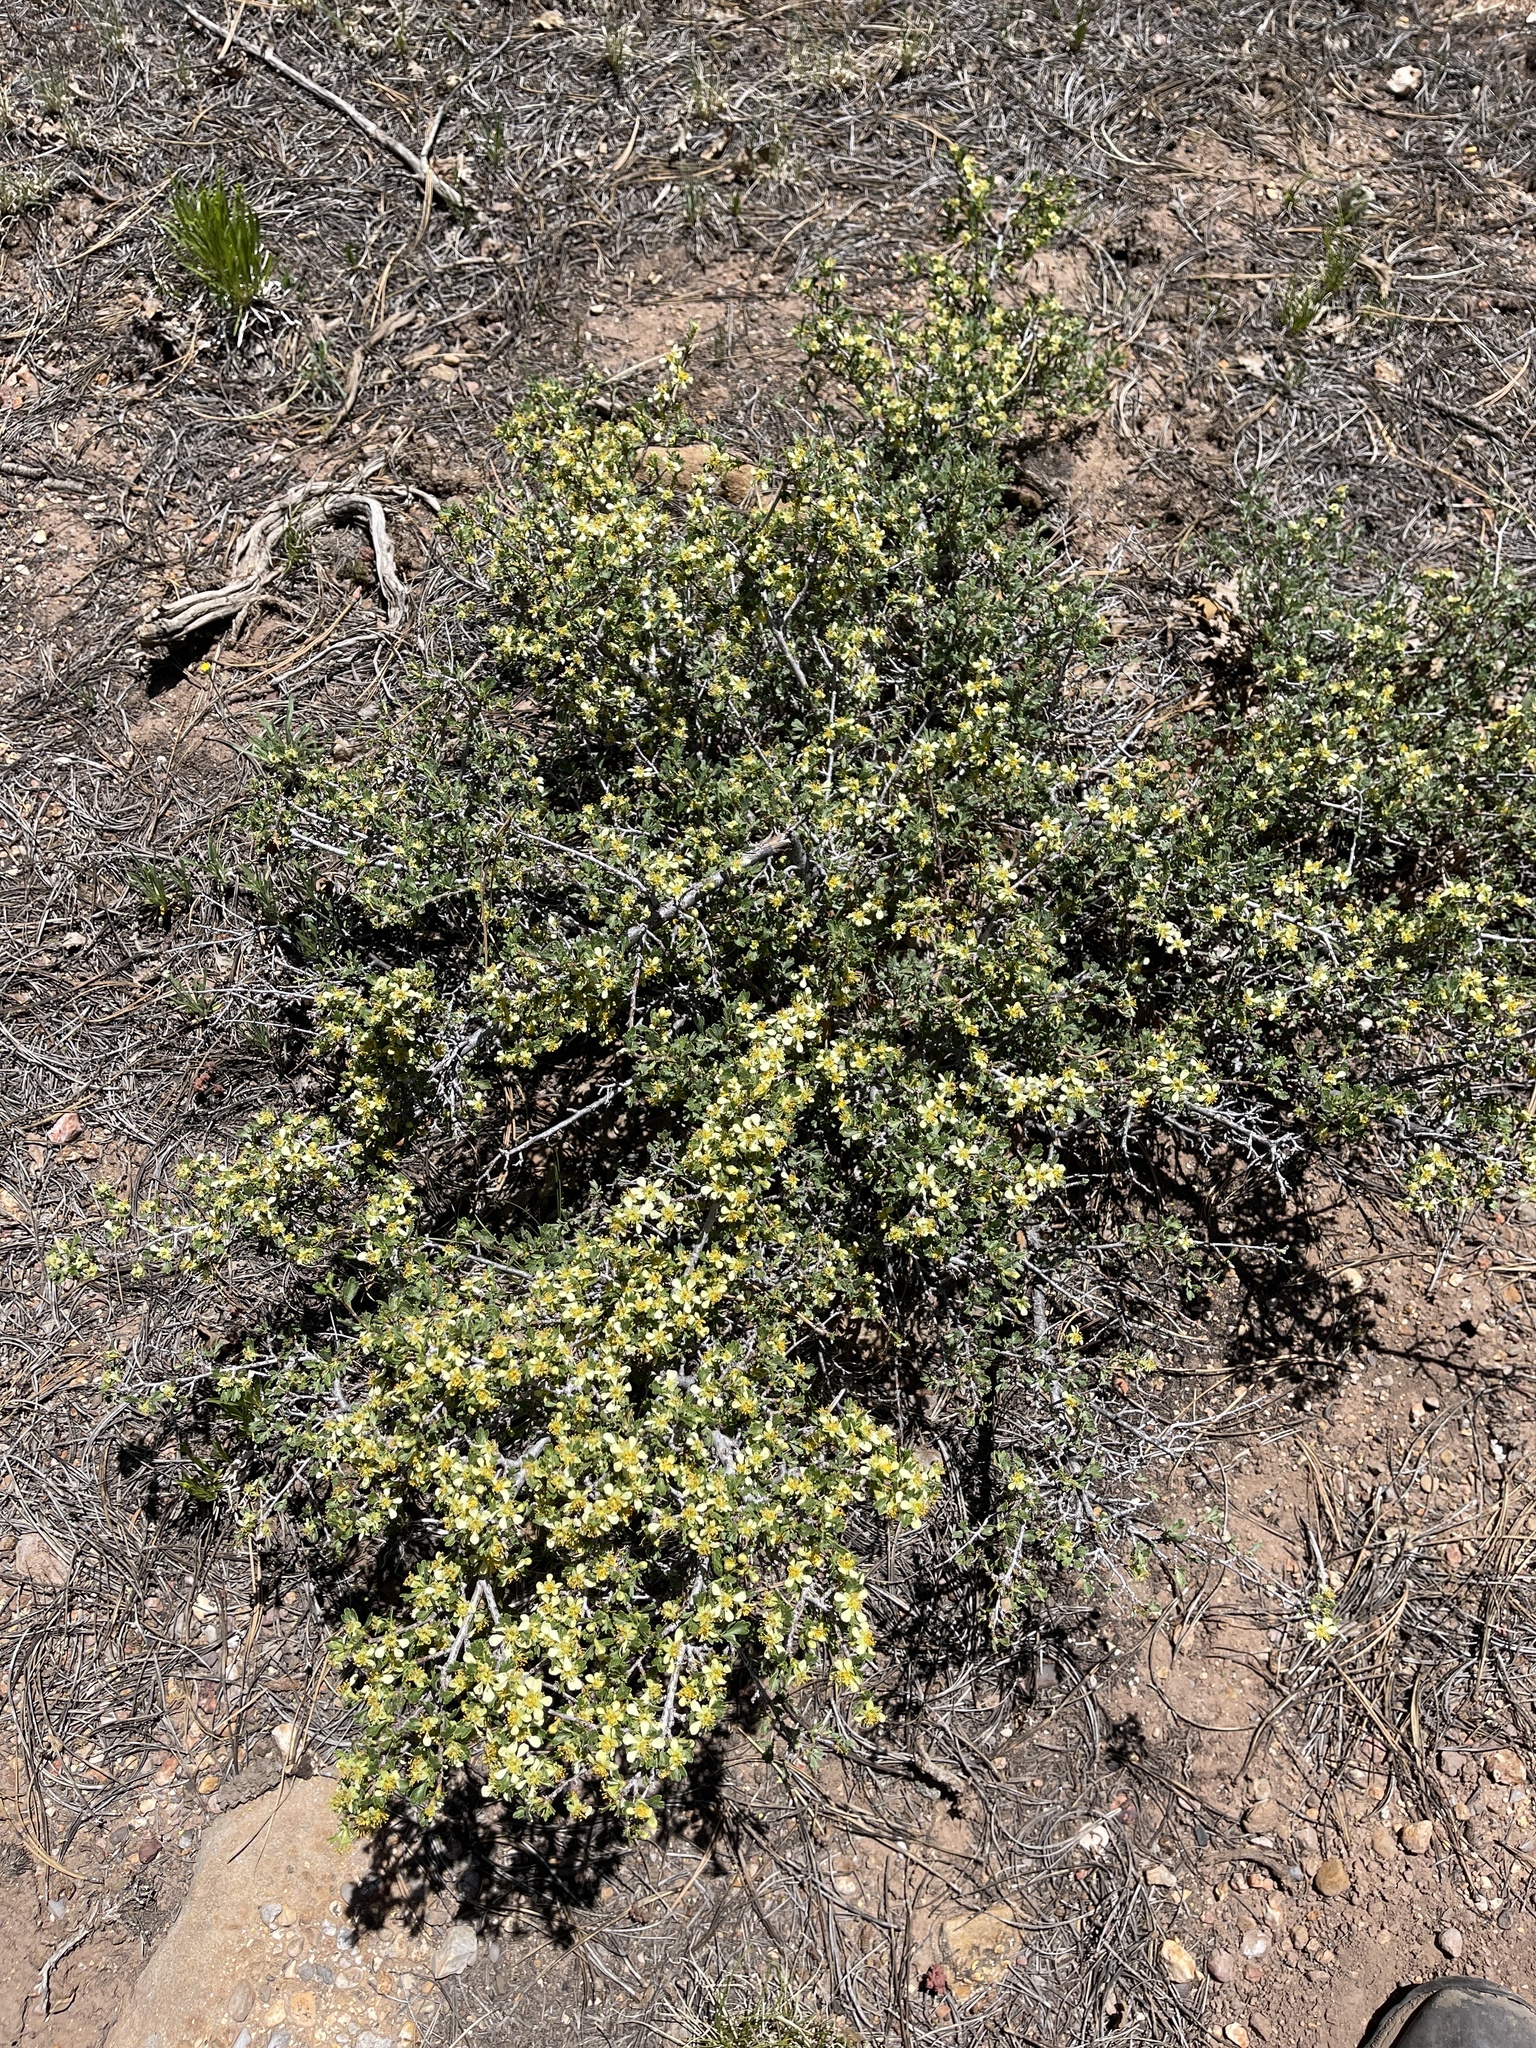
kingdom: Plantae
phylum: Tracheophyta
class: Magnoliopsida
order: Rosales
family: Rosaceae
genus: Purshia
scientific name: Purshia tridentata
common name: Antelope bitterbrush
